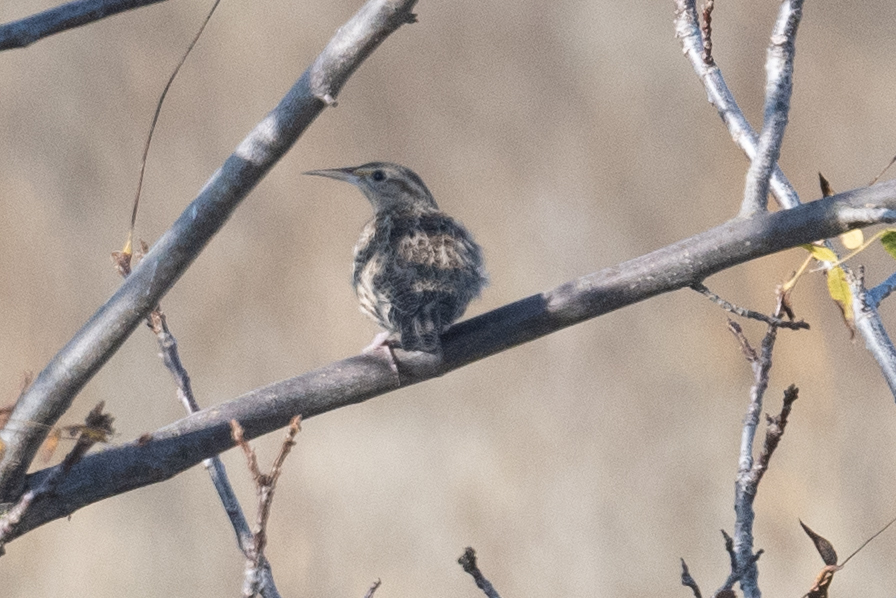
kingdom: Animalia
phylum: Chordata
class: Aves
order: Passeriformes
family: Icteridae
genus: Sturnella
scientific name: Sturnella neglecta
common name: Western meadowlark
